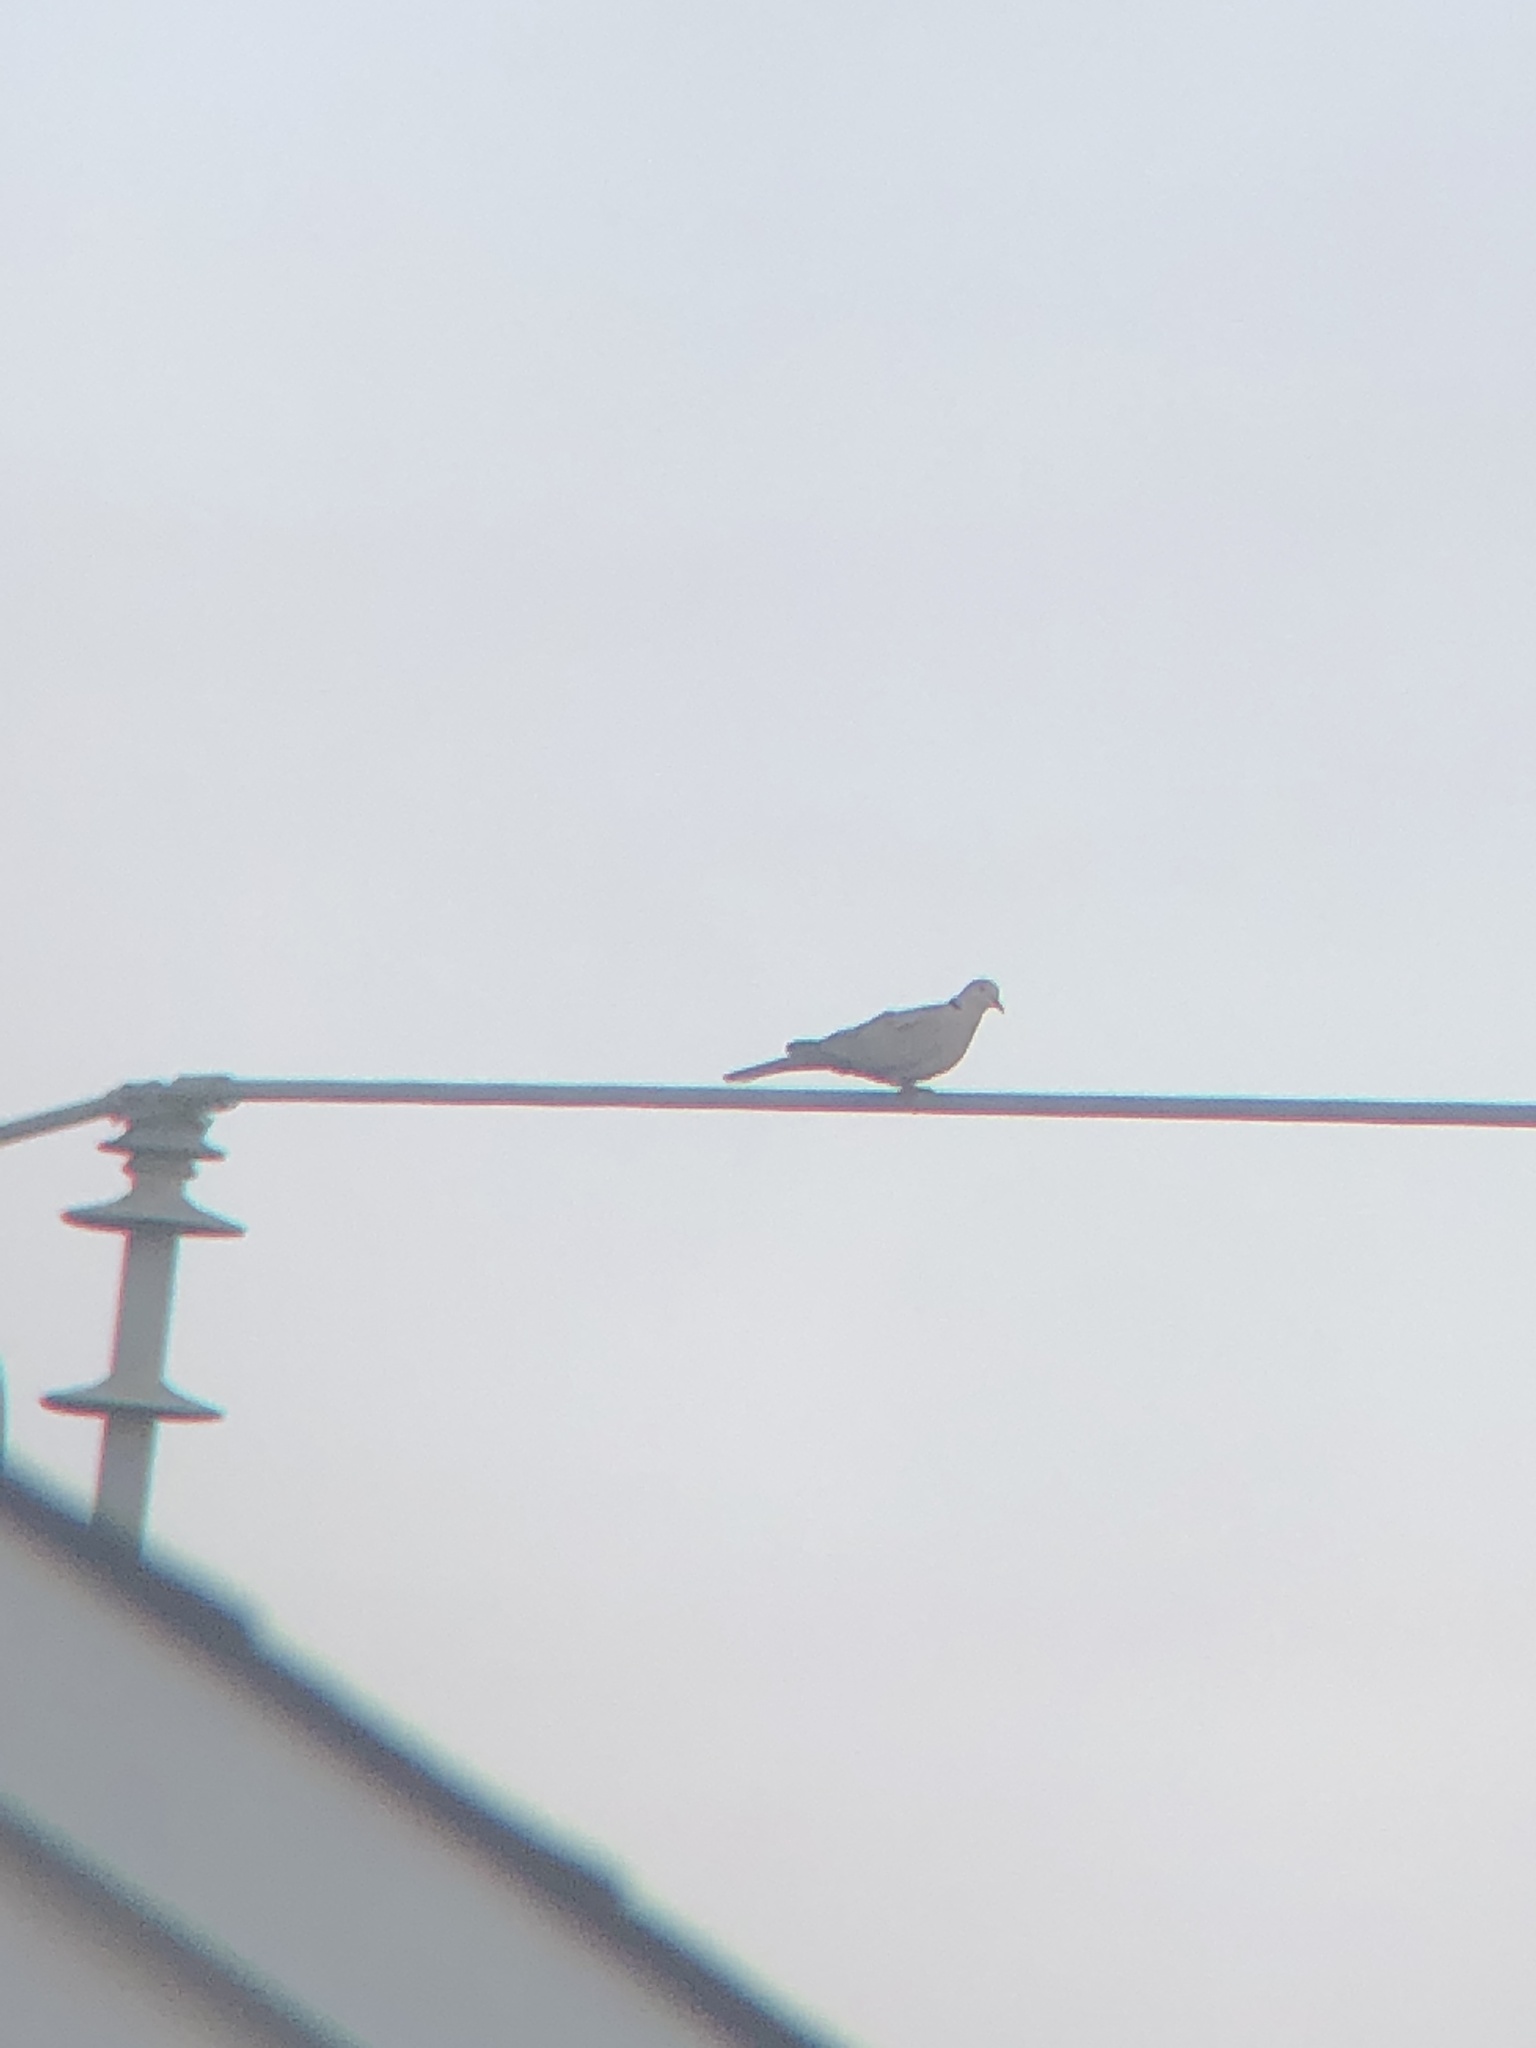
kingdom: Animalia
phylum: Chordata
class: Aves
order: Columbiformes
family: Columbidae
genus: Streptopelia
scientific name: Streptopelia decaocto
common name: Eurasian collared dove
